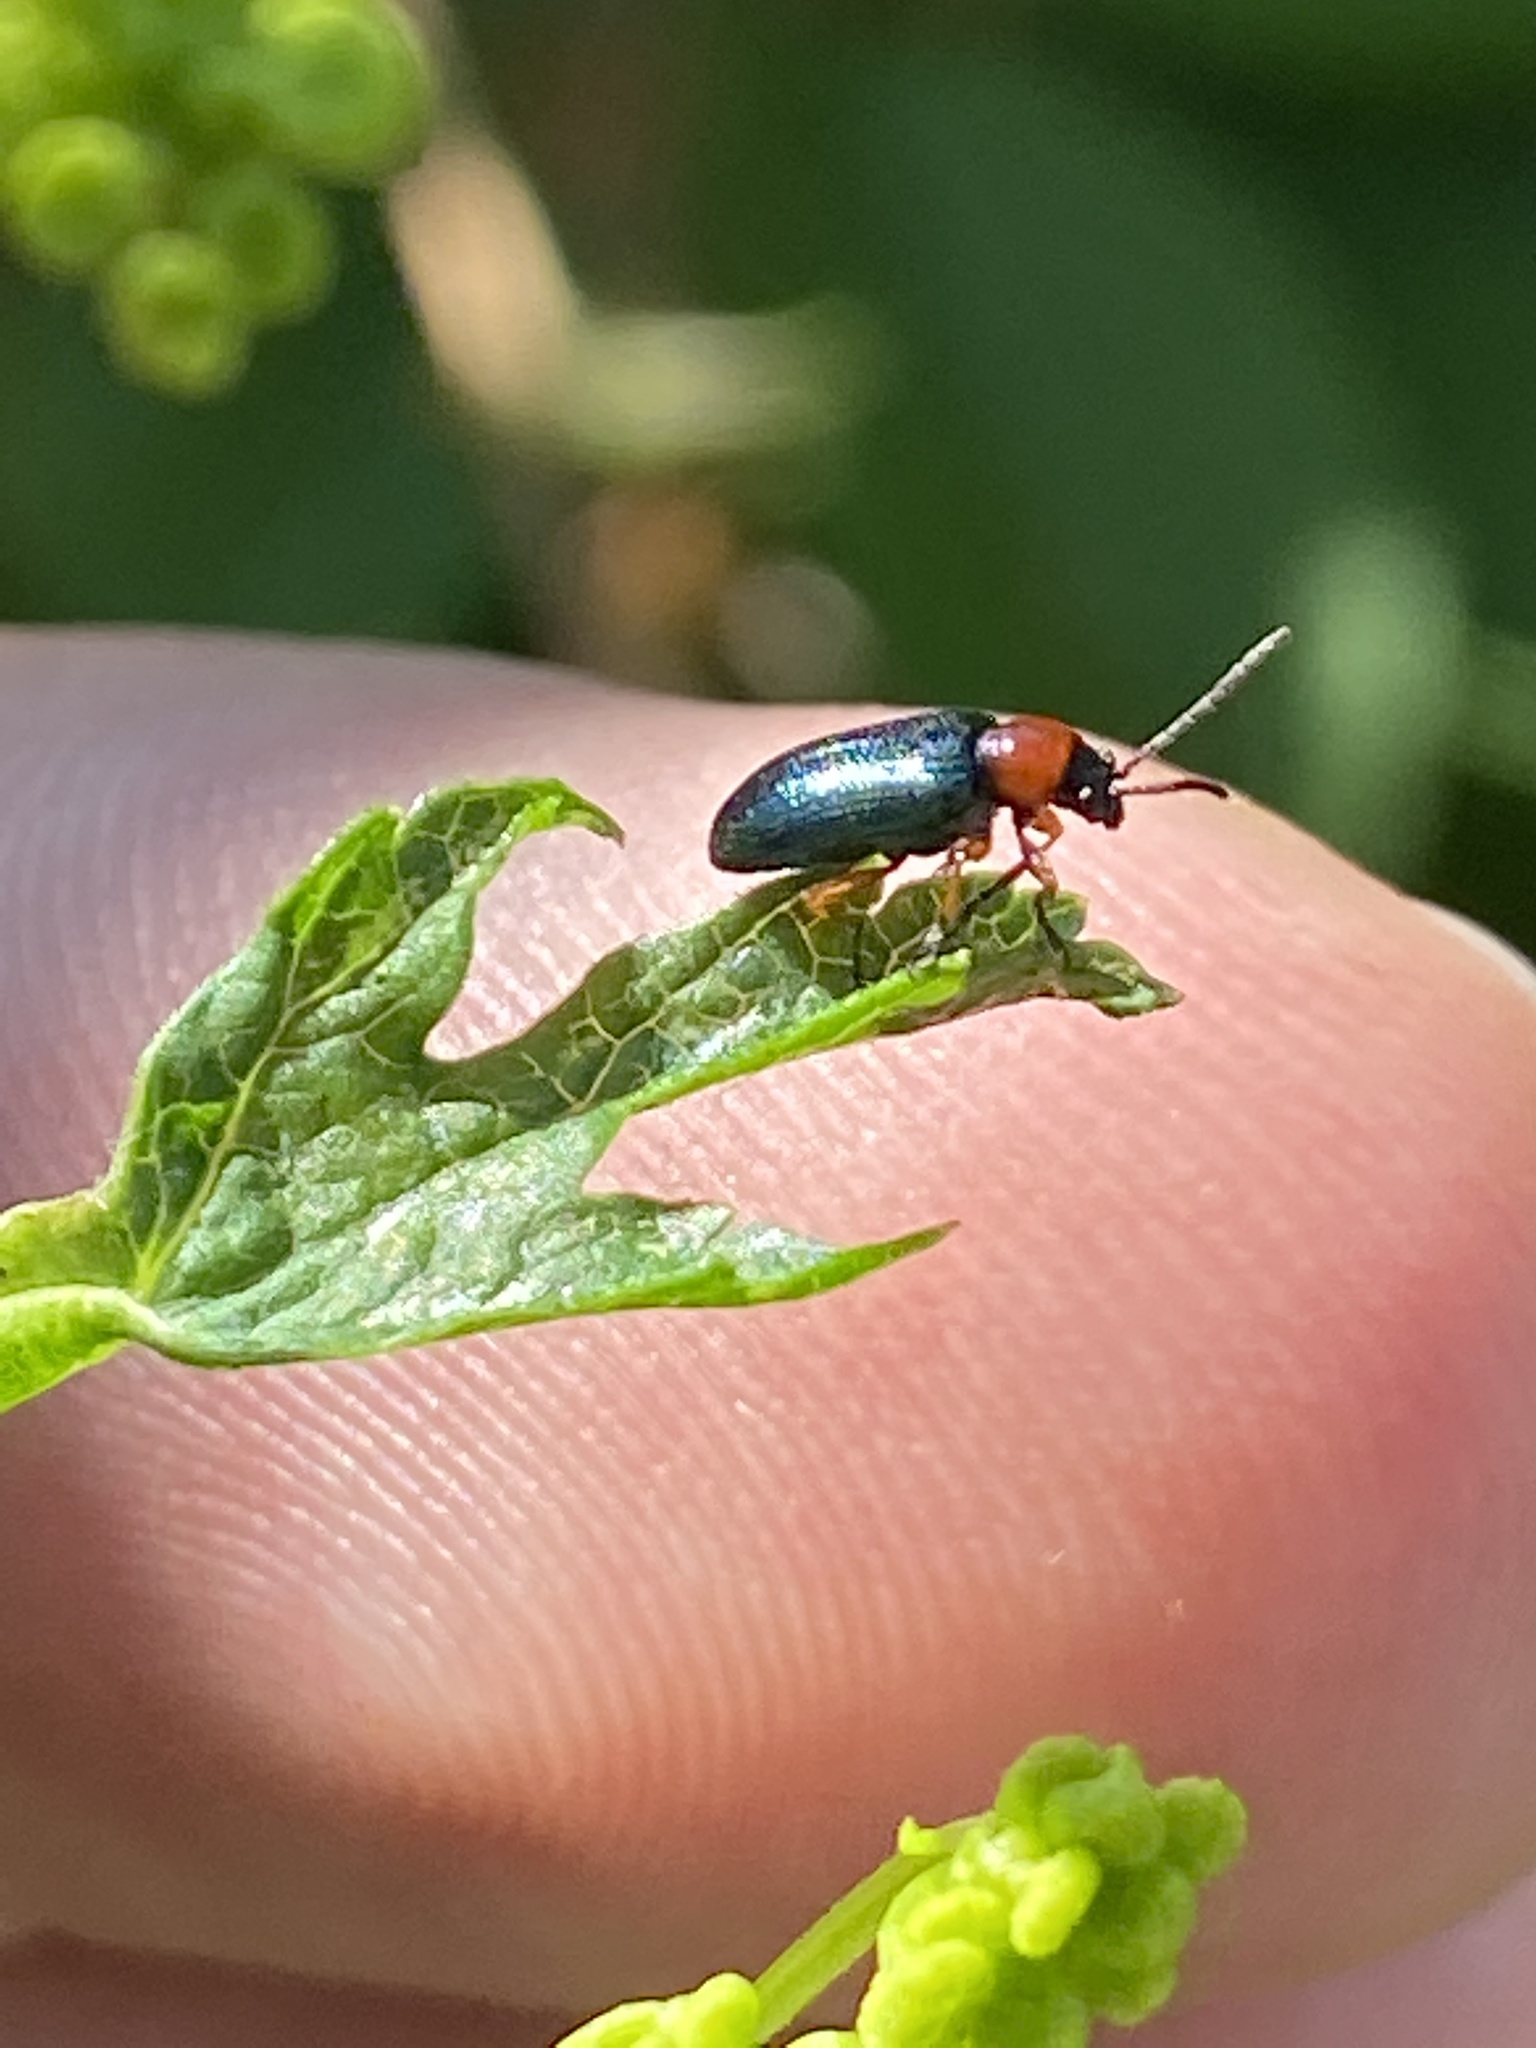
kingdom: Animalia
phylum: Arthropoda
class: Insecta
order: Coleoptera
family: Chrysomelidae
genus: Oulema
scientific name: Oulema
